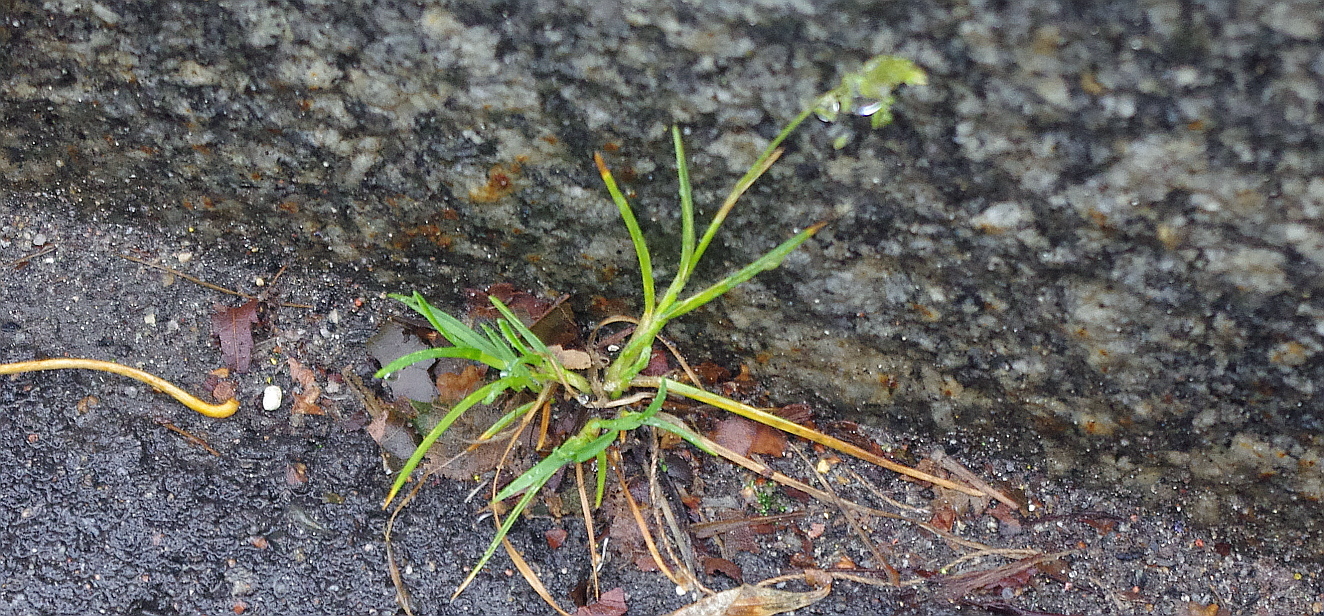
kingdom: Plantae
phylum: Tracheophyta
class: Liliopsida
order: Poales
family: Poaceae
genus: Poa
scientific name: Poa annua
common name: Annual bluegrass
